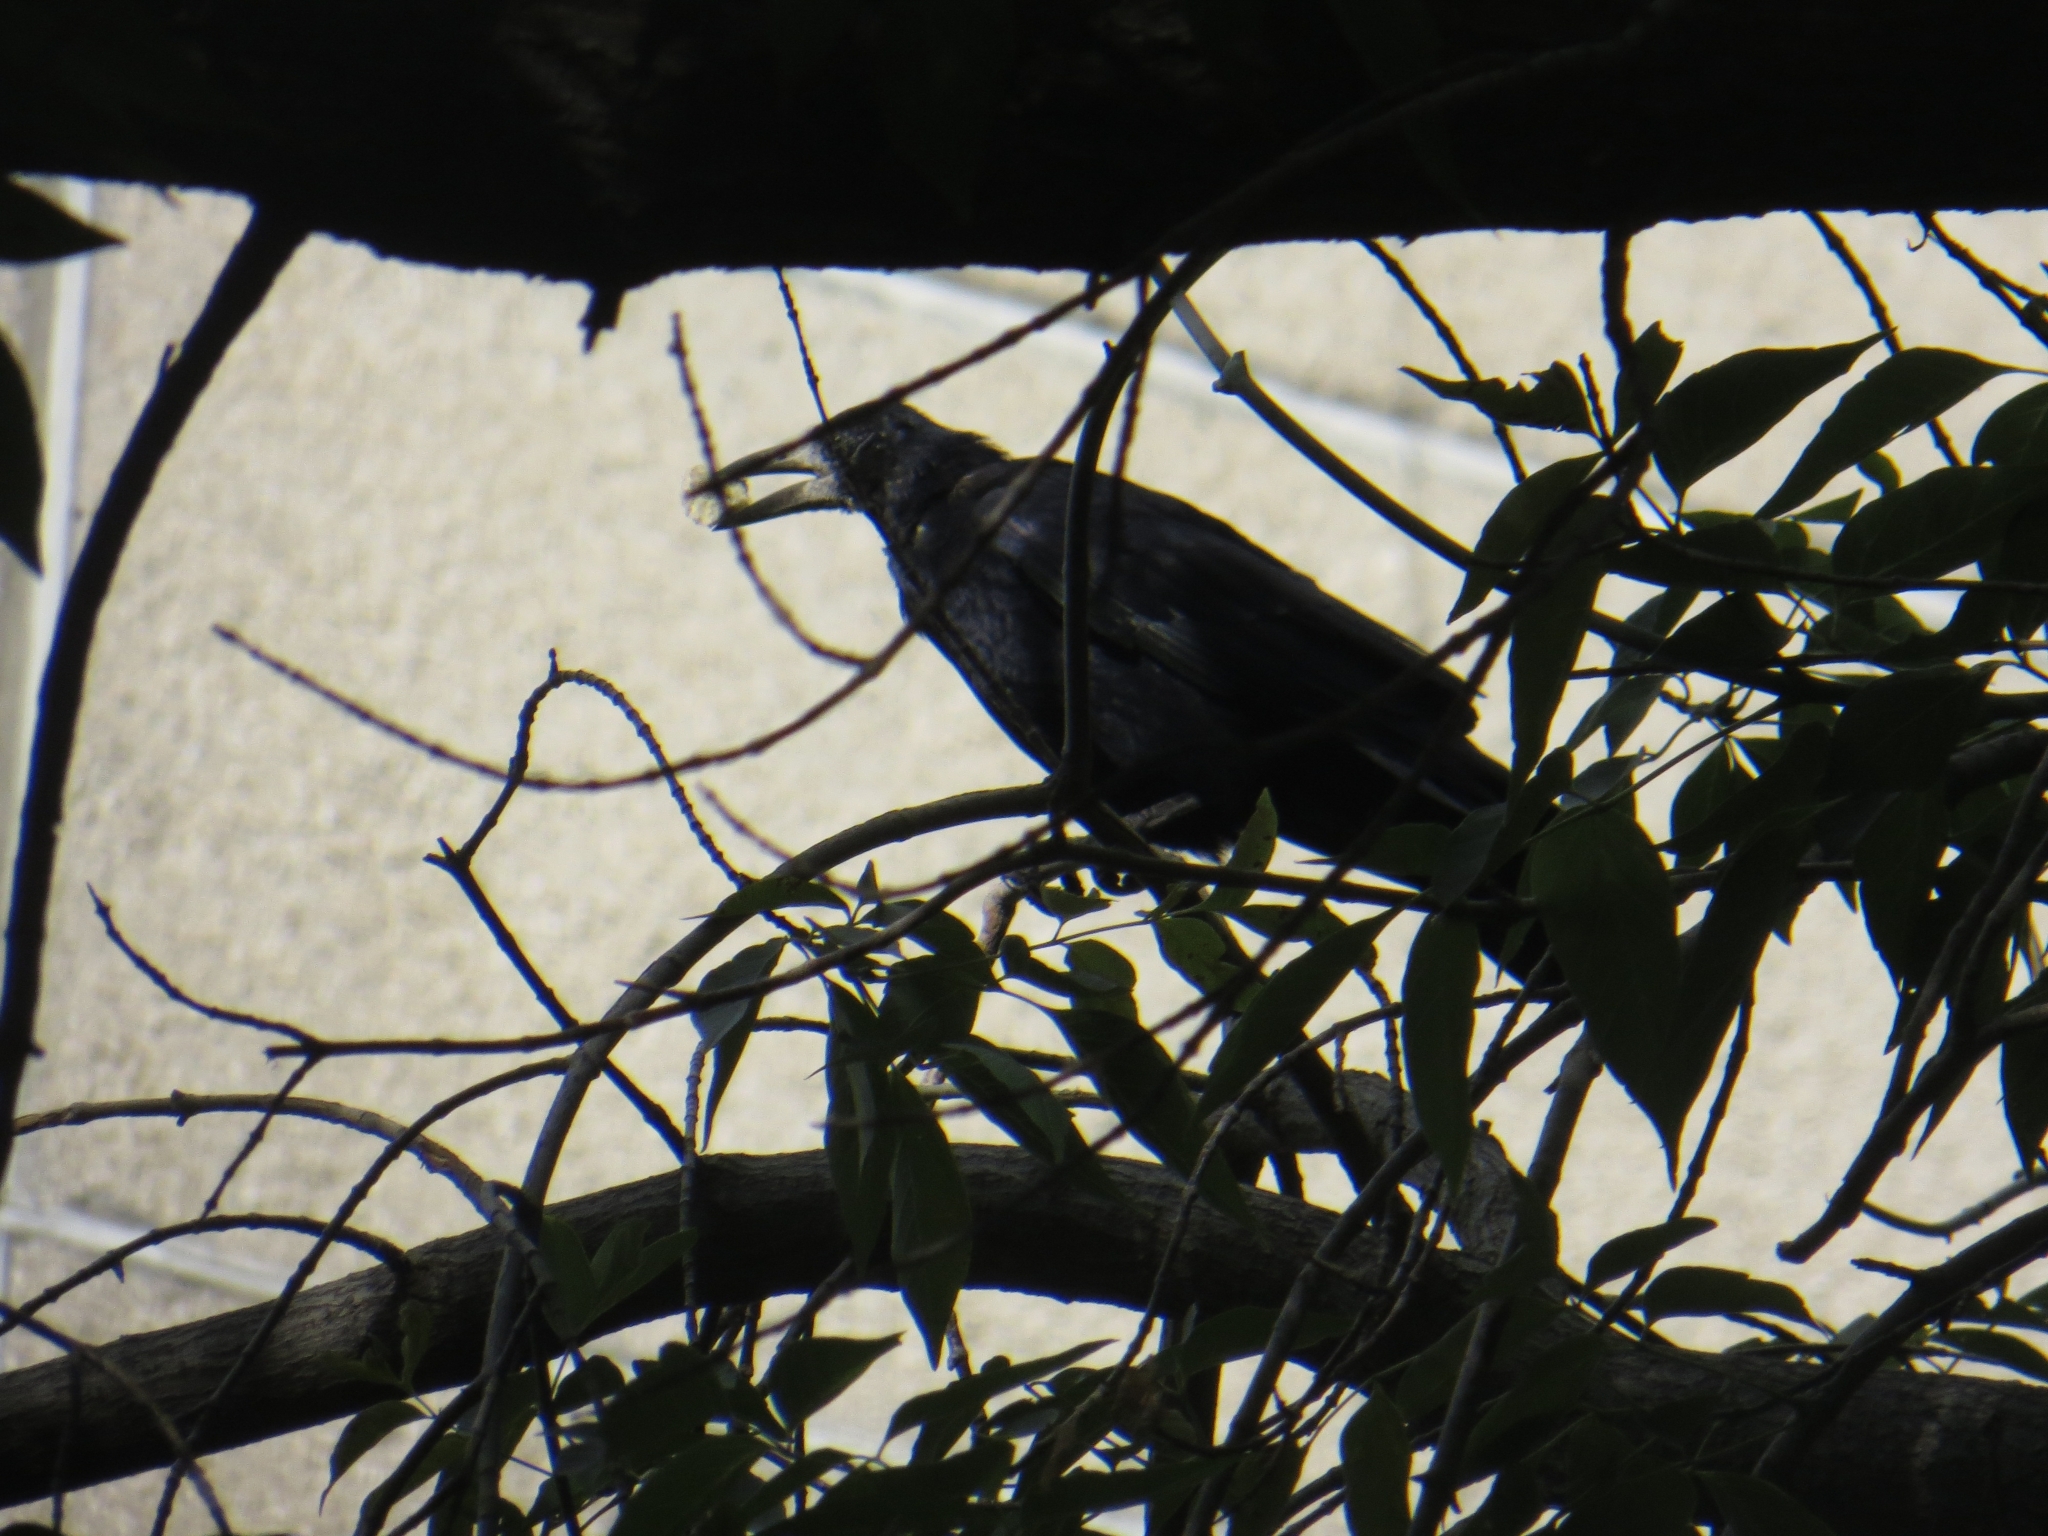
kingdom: Animalia
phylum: Chordata
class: Aves
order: Passeriformes
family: Corvidae
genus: Corvus
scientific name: Corvus frugilegus
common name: Rook
